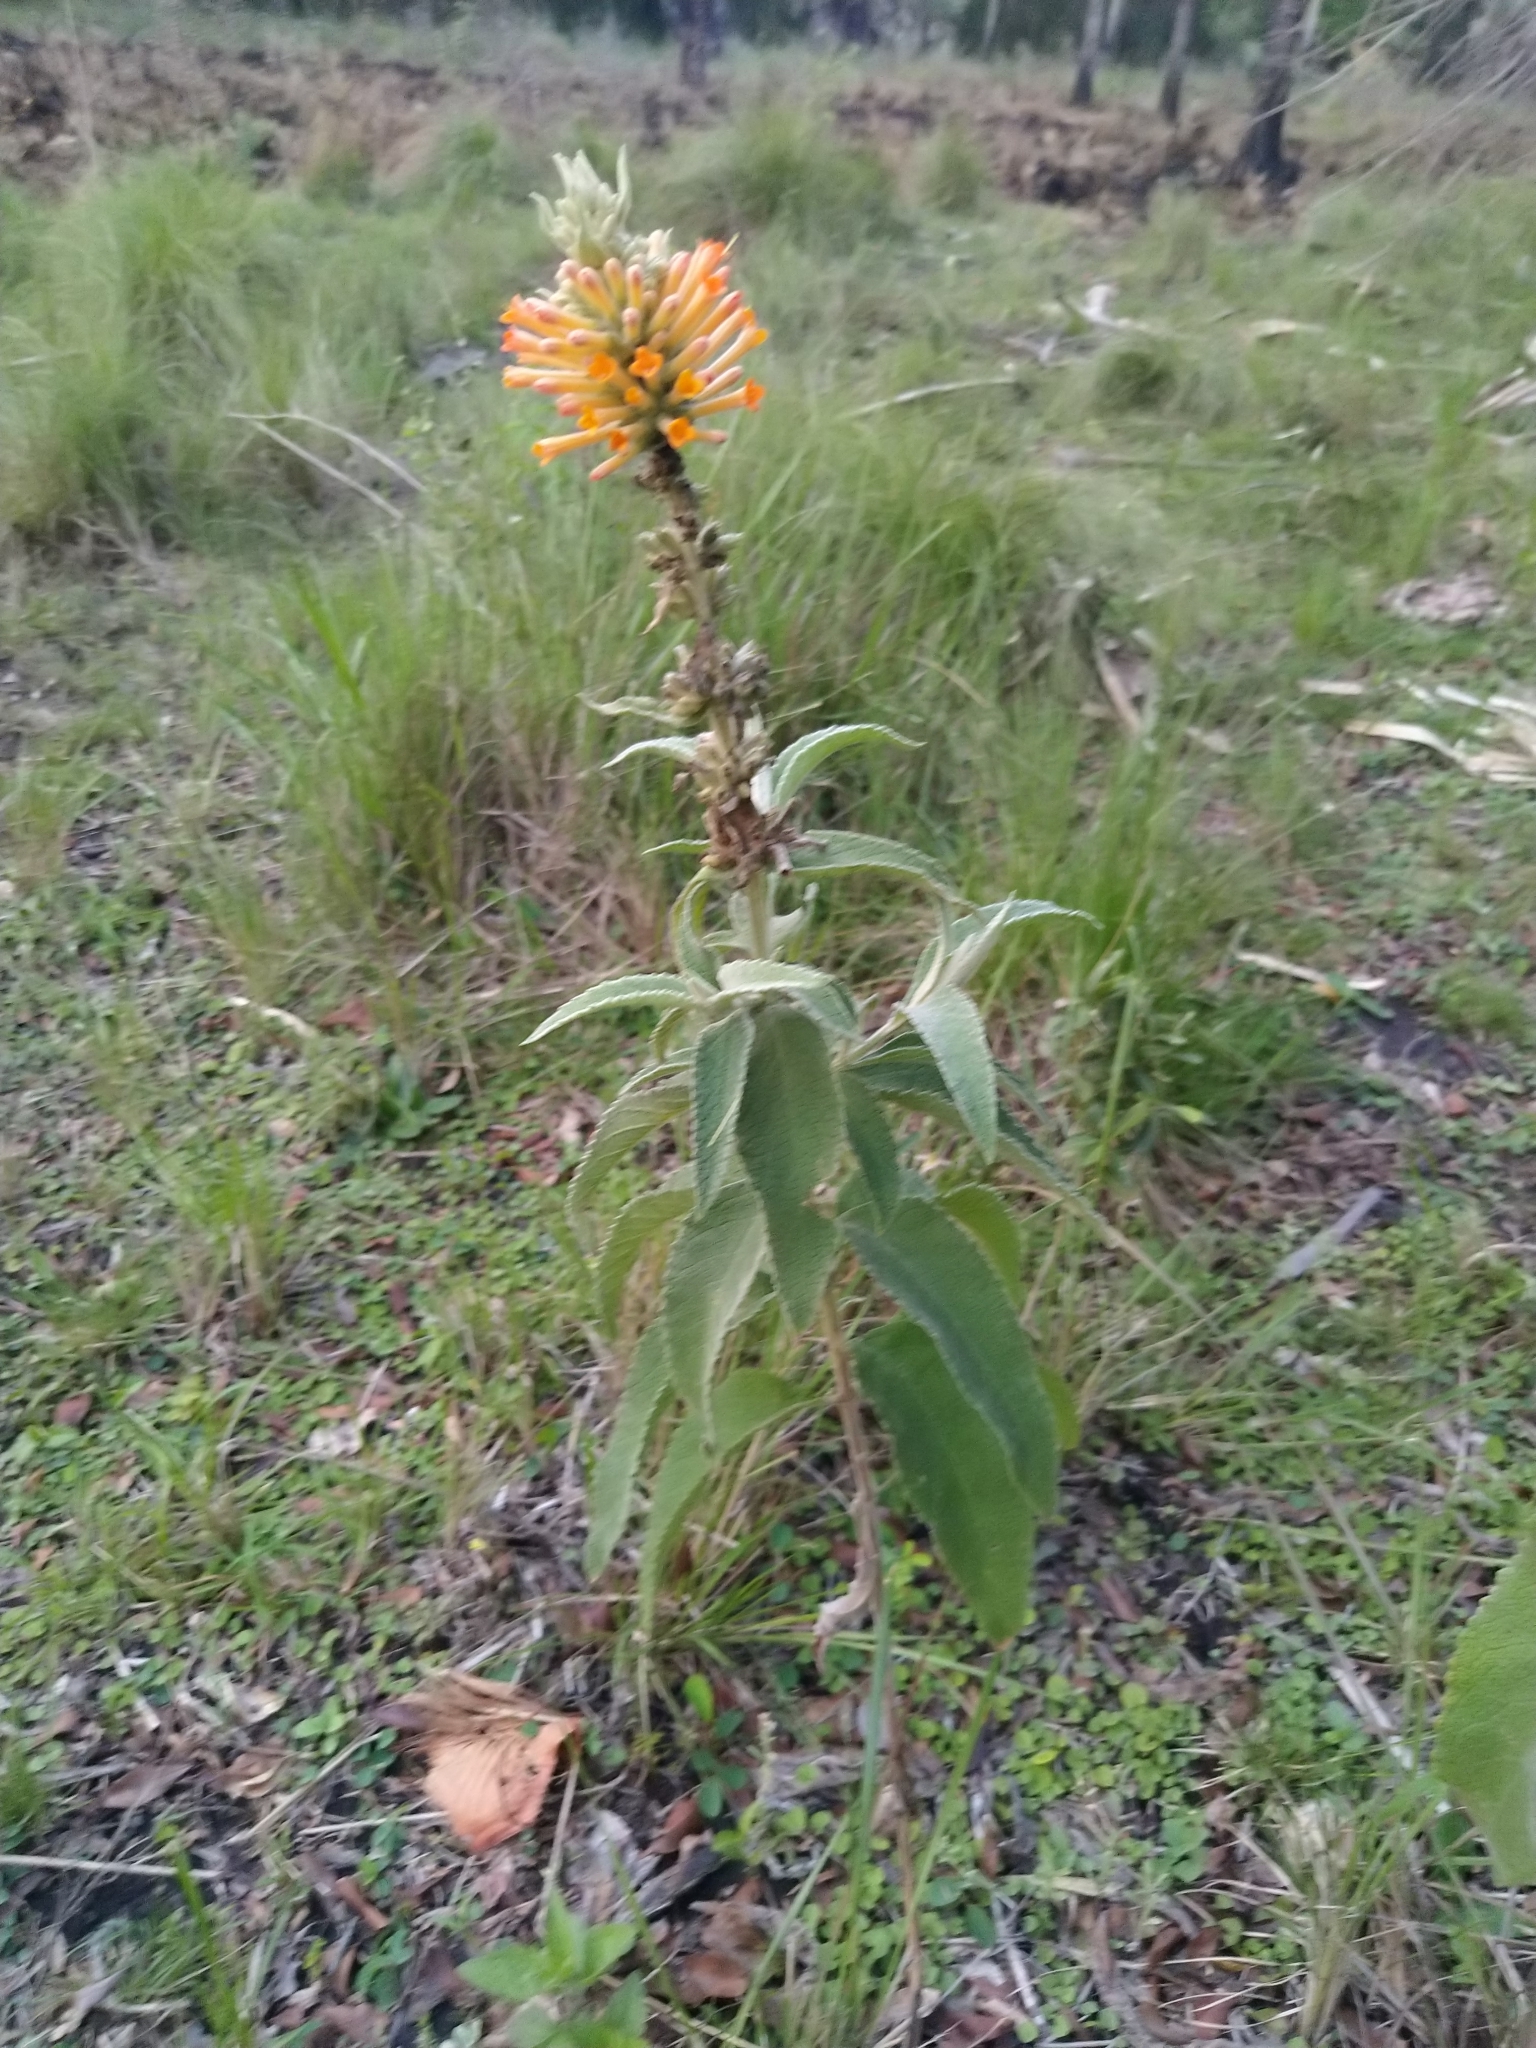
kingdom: Plantae
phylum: Tracheophyta
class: Magnoliopsida
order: Lamiales
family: Scrophulariaceae
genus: Buddleja
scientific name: Buddleja tubiflora
